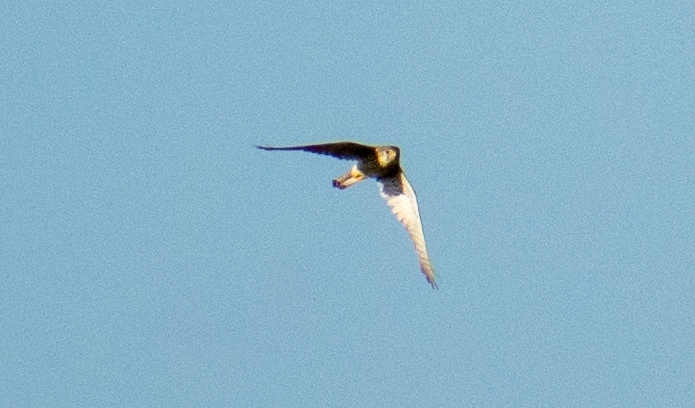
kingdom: Animalia
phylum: Chordata
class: Aves
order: Falconiformes
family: Falconidae
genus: Falco
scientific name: Falco subbuteo
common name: Eurasian hobby
